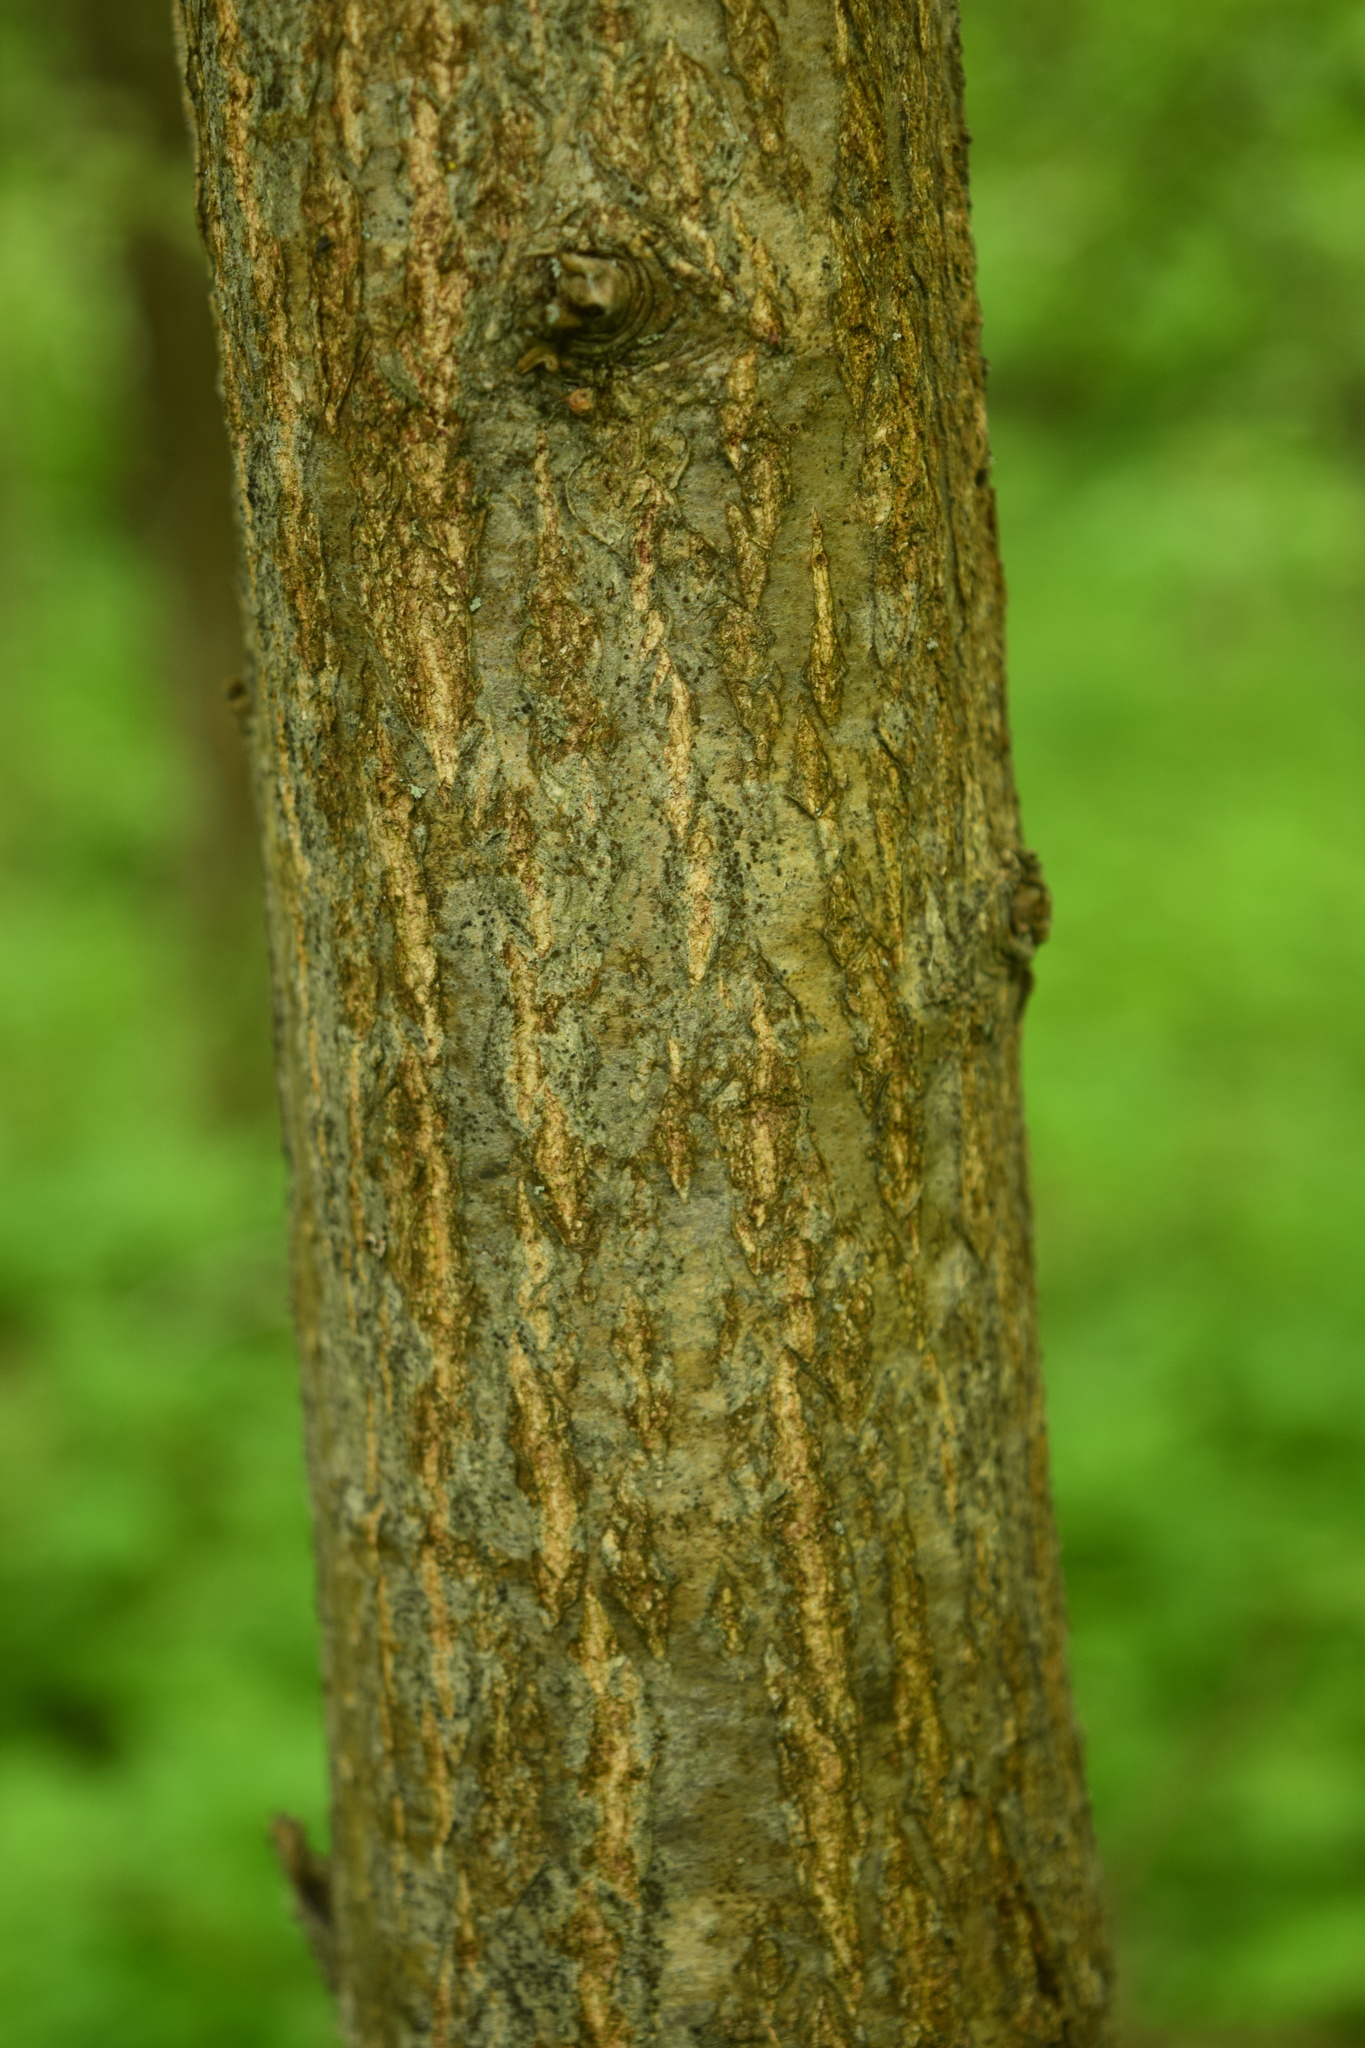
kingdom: Plantae
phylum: Tracheophyta
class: Magnoliopsida
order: Fagales
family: Fagaceae
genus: Quercus
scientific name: Quercus robur
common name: Pedunculate oak
